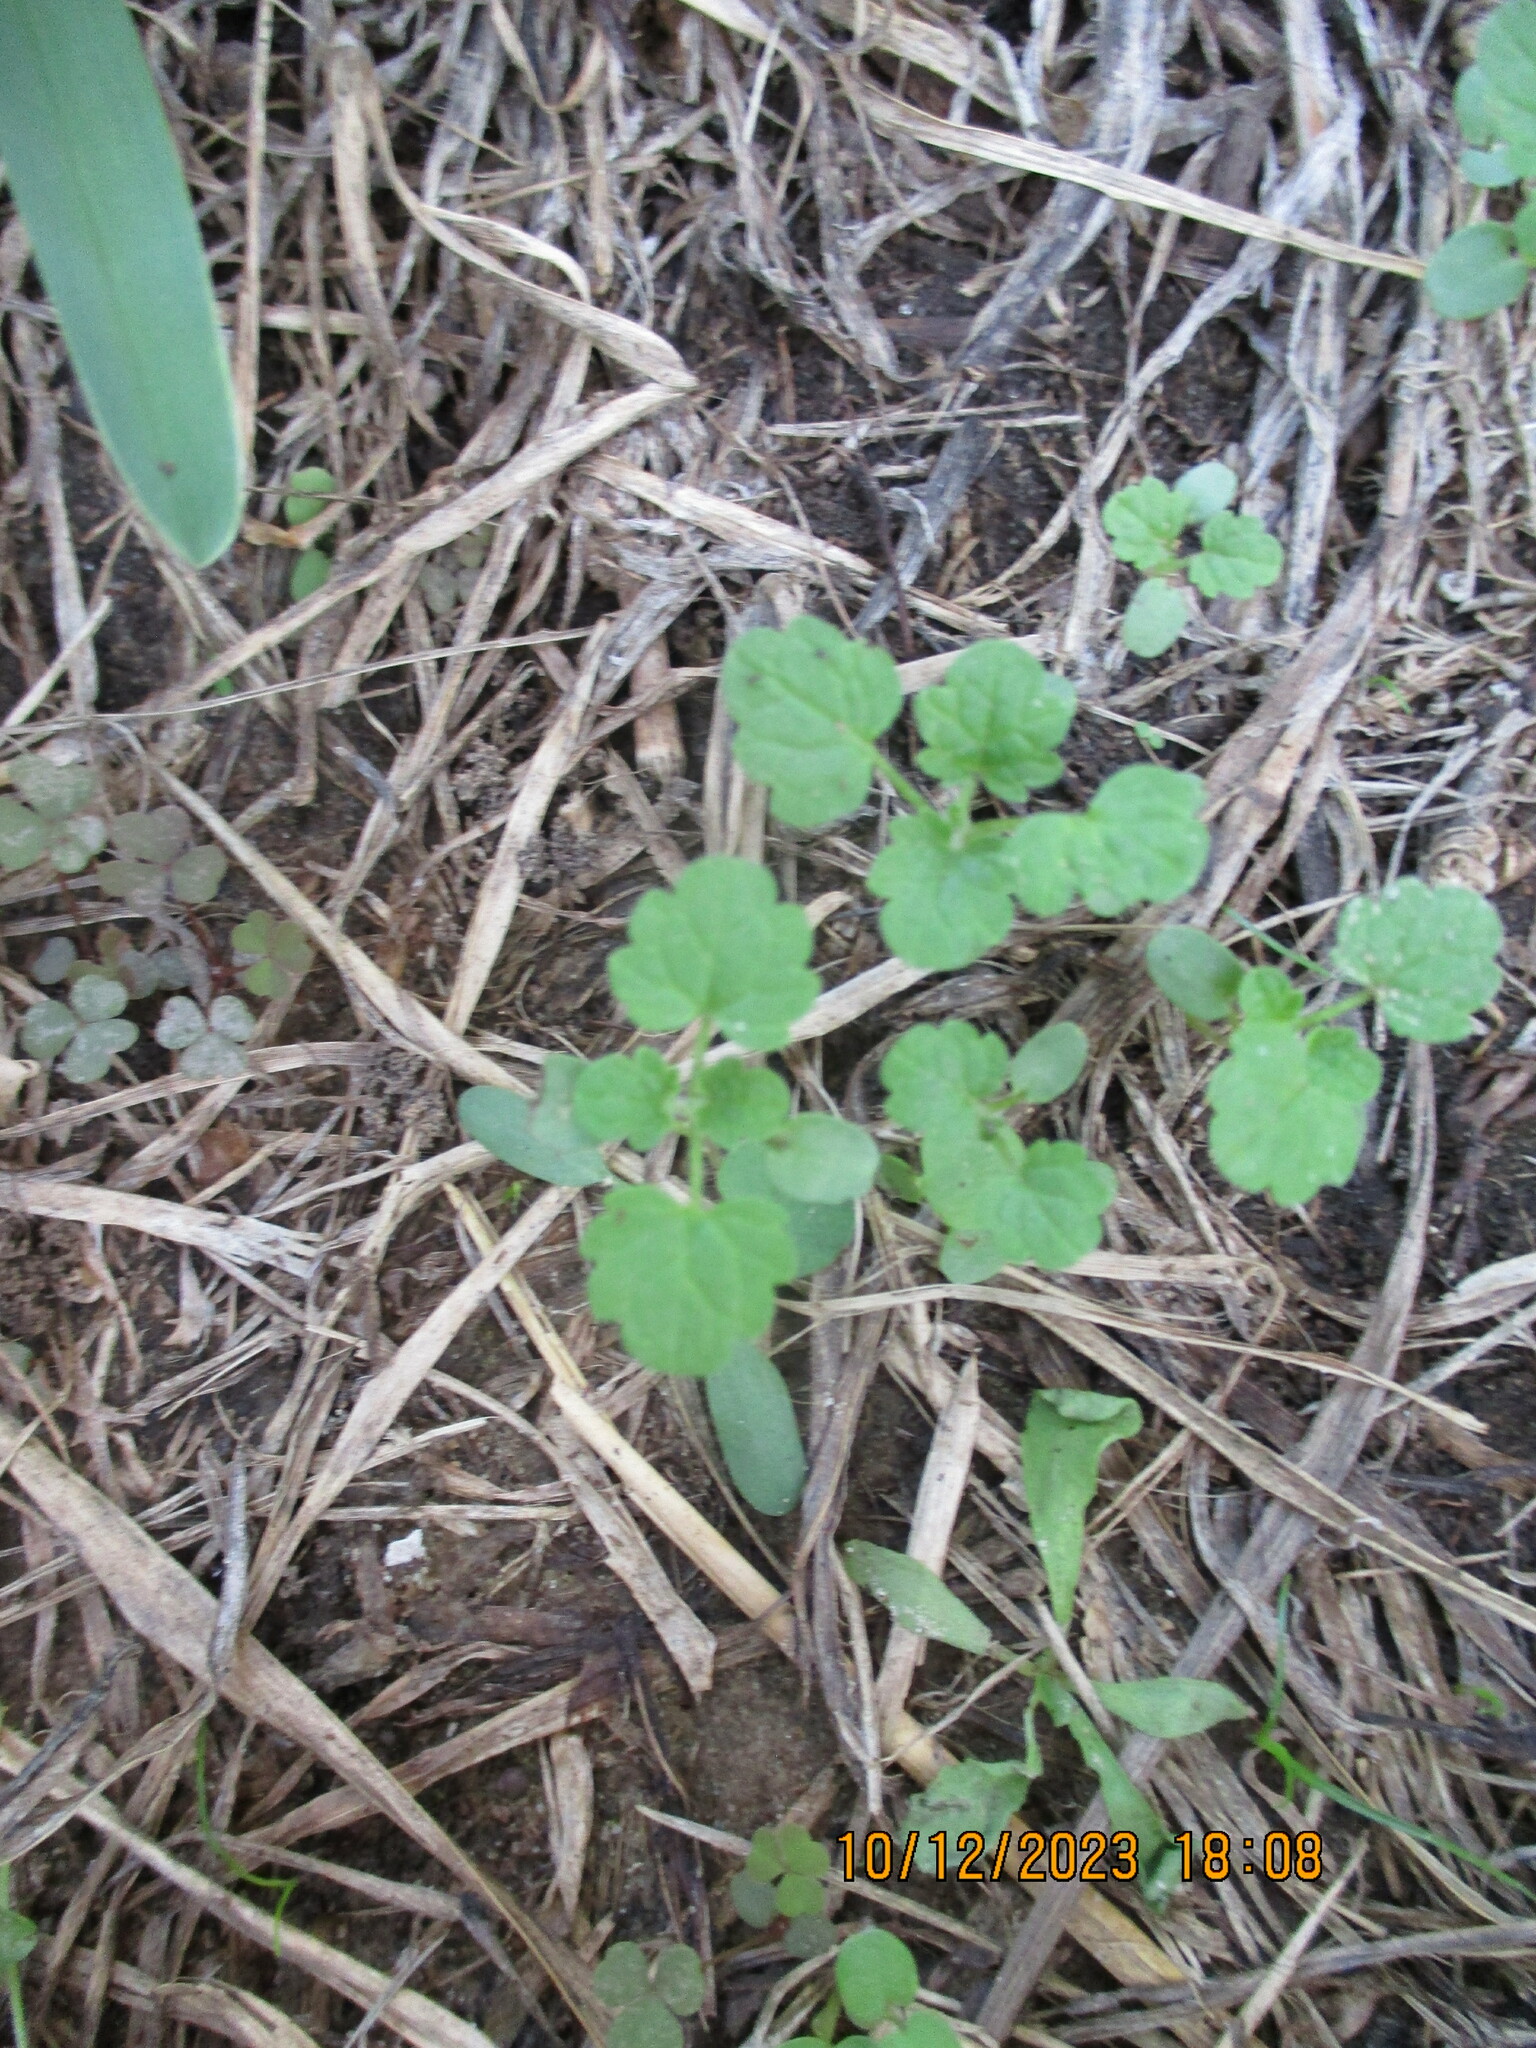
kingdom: Plantae
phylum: Tracheophyta
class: Magnoliopsida
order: Lamiales
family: Lamiaceae
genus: Lamium
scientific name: Lamium amplexicaule
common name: Henbit dead-nettle
